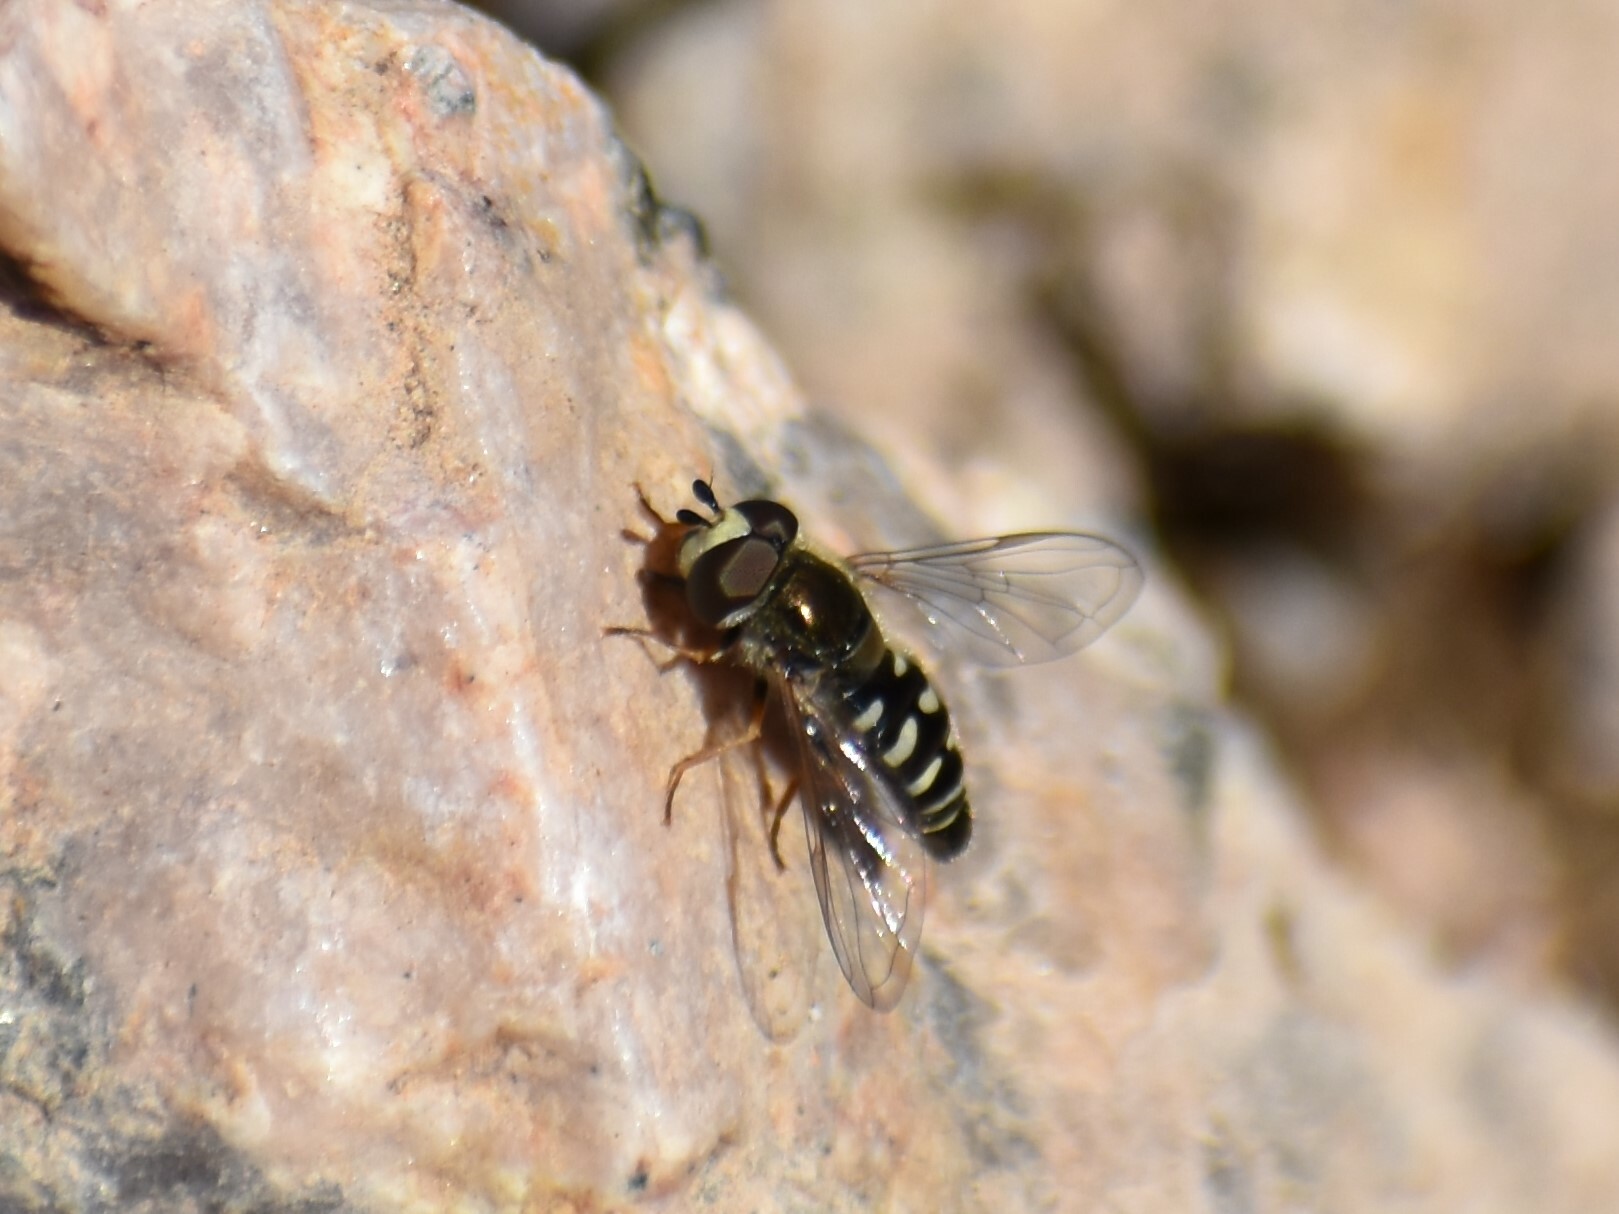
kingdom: Animalia
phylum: Arthropoda
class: Insecta
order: Diptera
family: Syrphidae
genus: Eupeodes
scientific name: Eupeodes volucris
